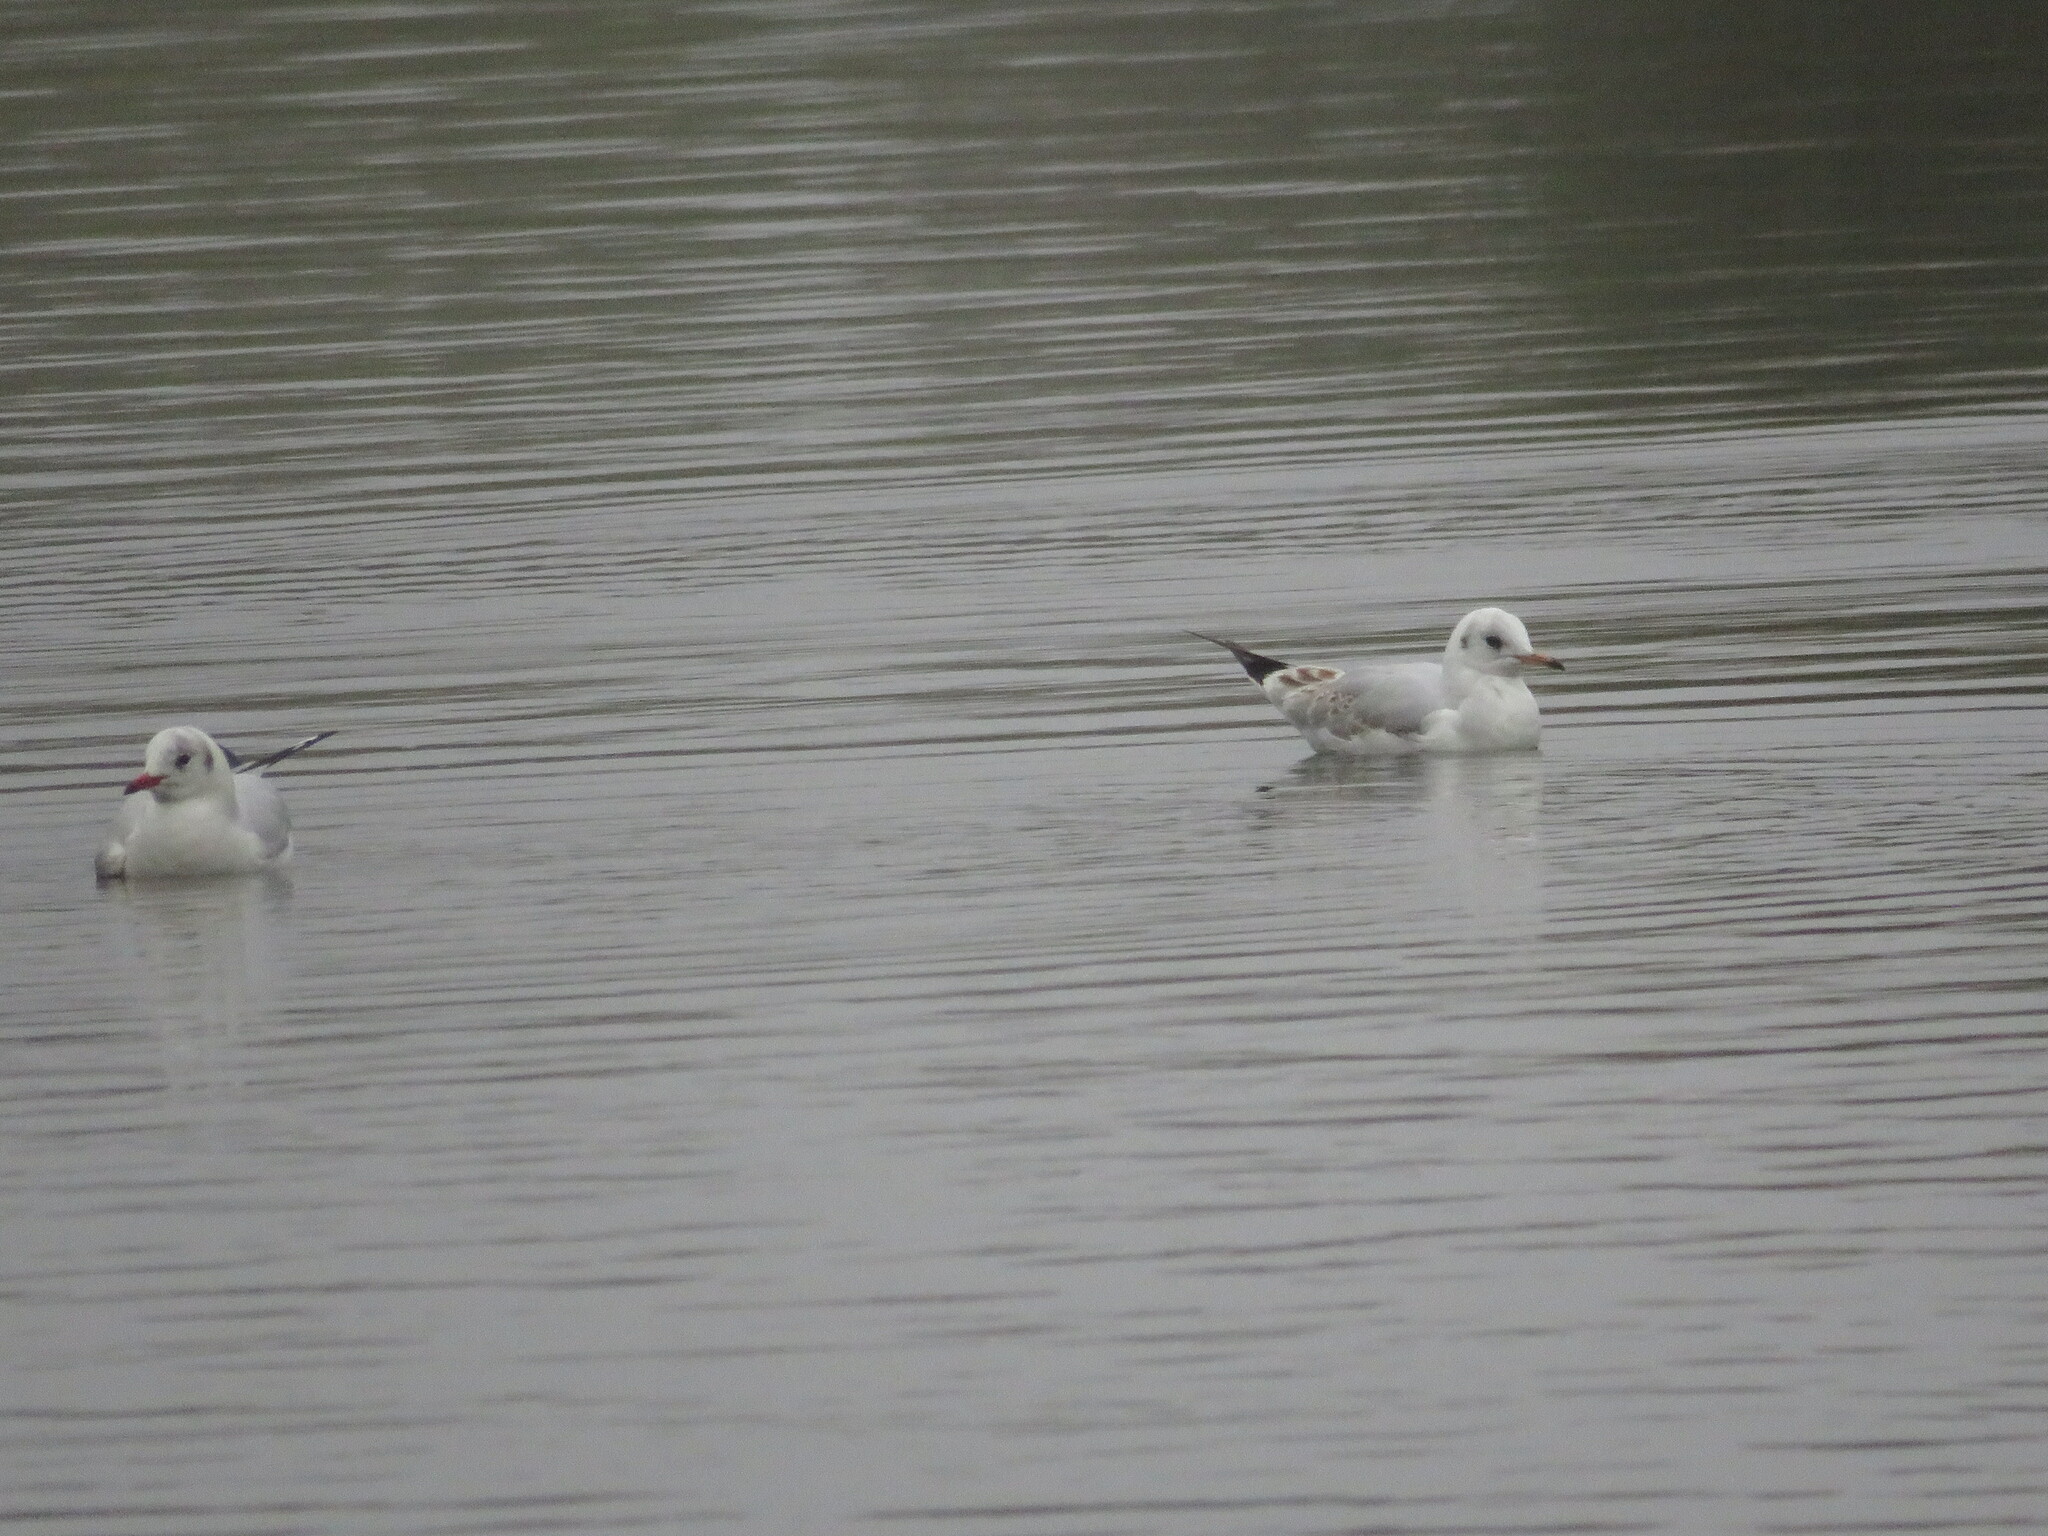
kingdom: Animalia
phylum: Chordata
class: Aves
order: Charadriiformes
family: Laridae
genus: Chroicocephalus
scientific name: Chroicocephalus ridibundus
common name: Black-headed gull
